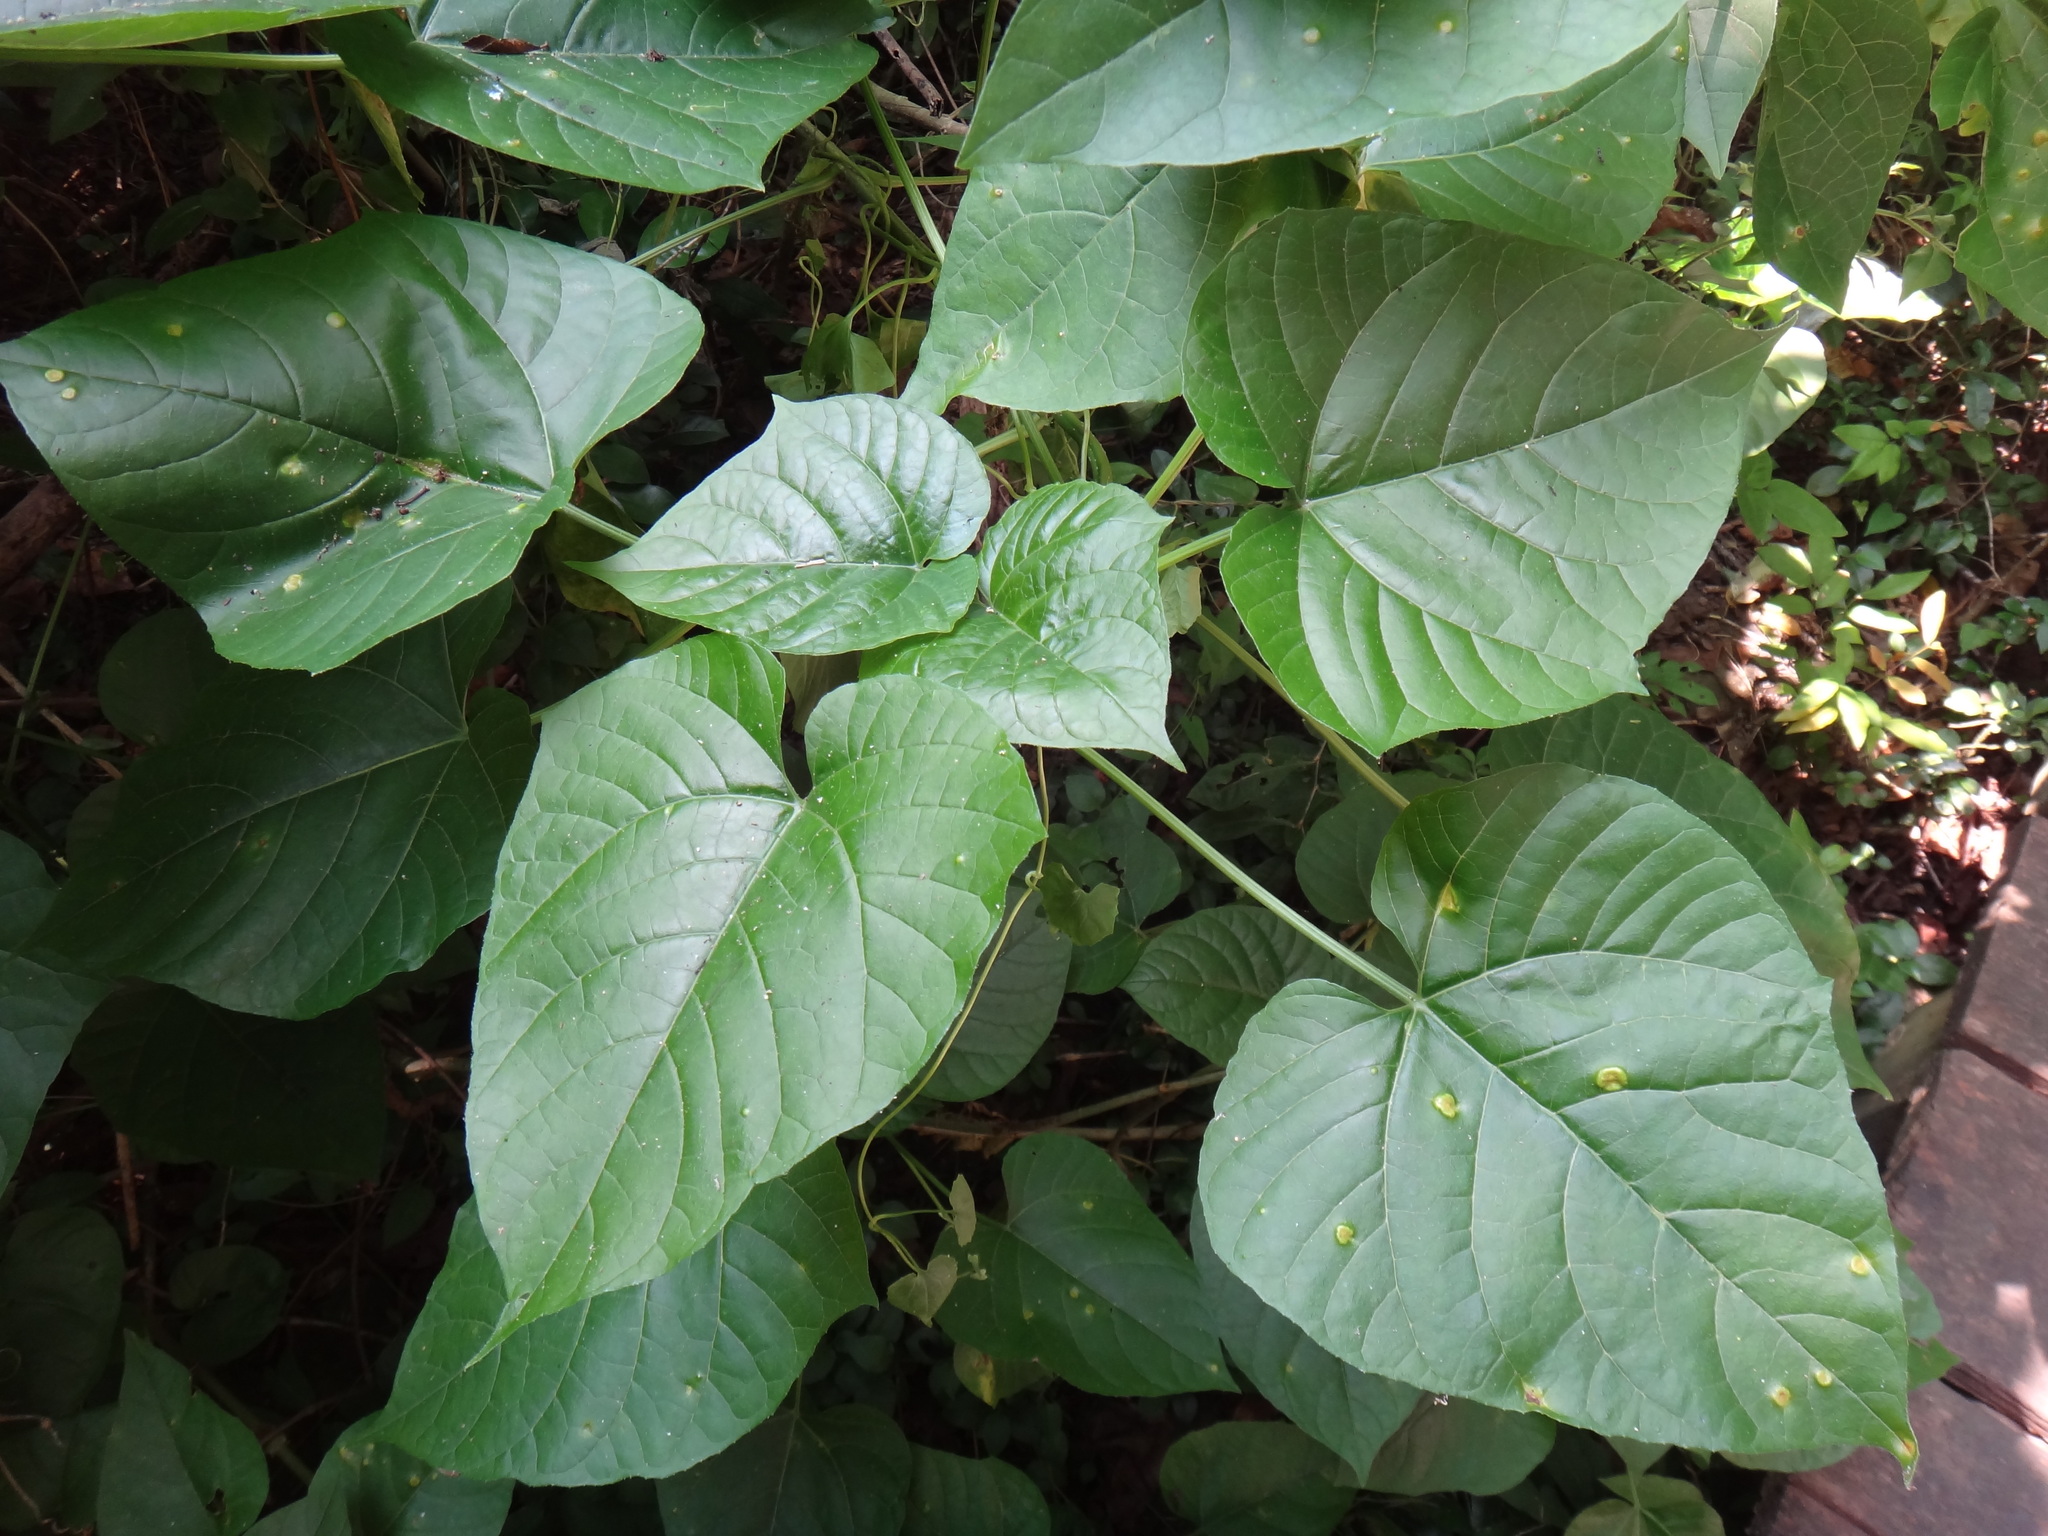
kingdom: Plantae
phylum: Tracheophyta
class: Magnoliopsida
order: Lamiales
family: Lamiaceae
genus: Clerodendrum
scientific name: Clerodendrum japonicum
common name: Japanese glorybower
